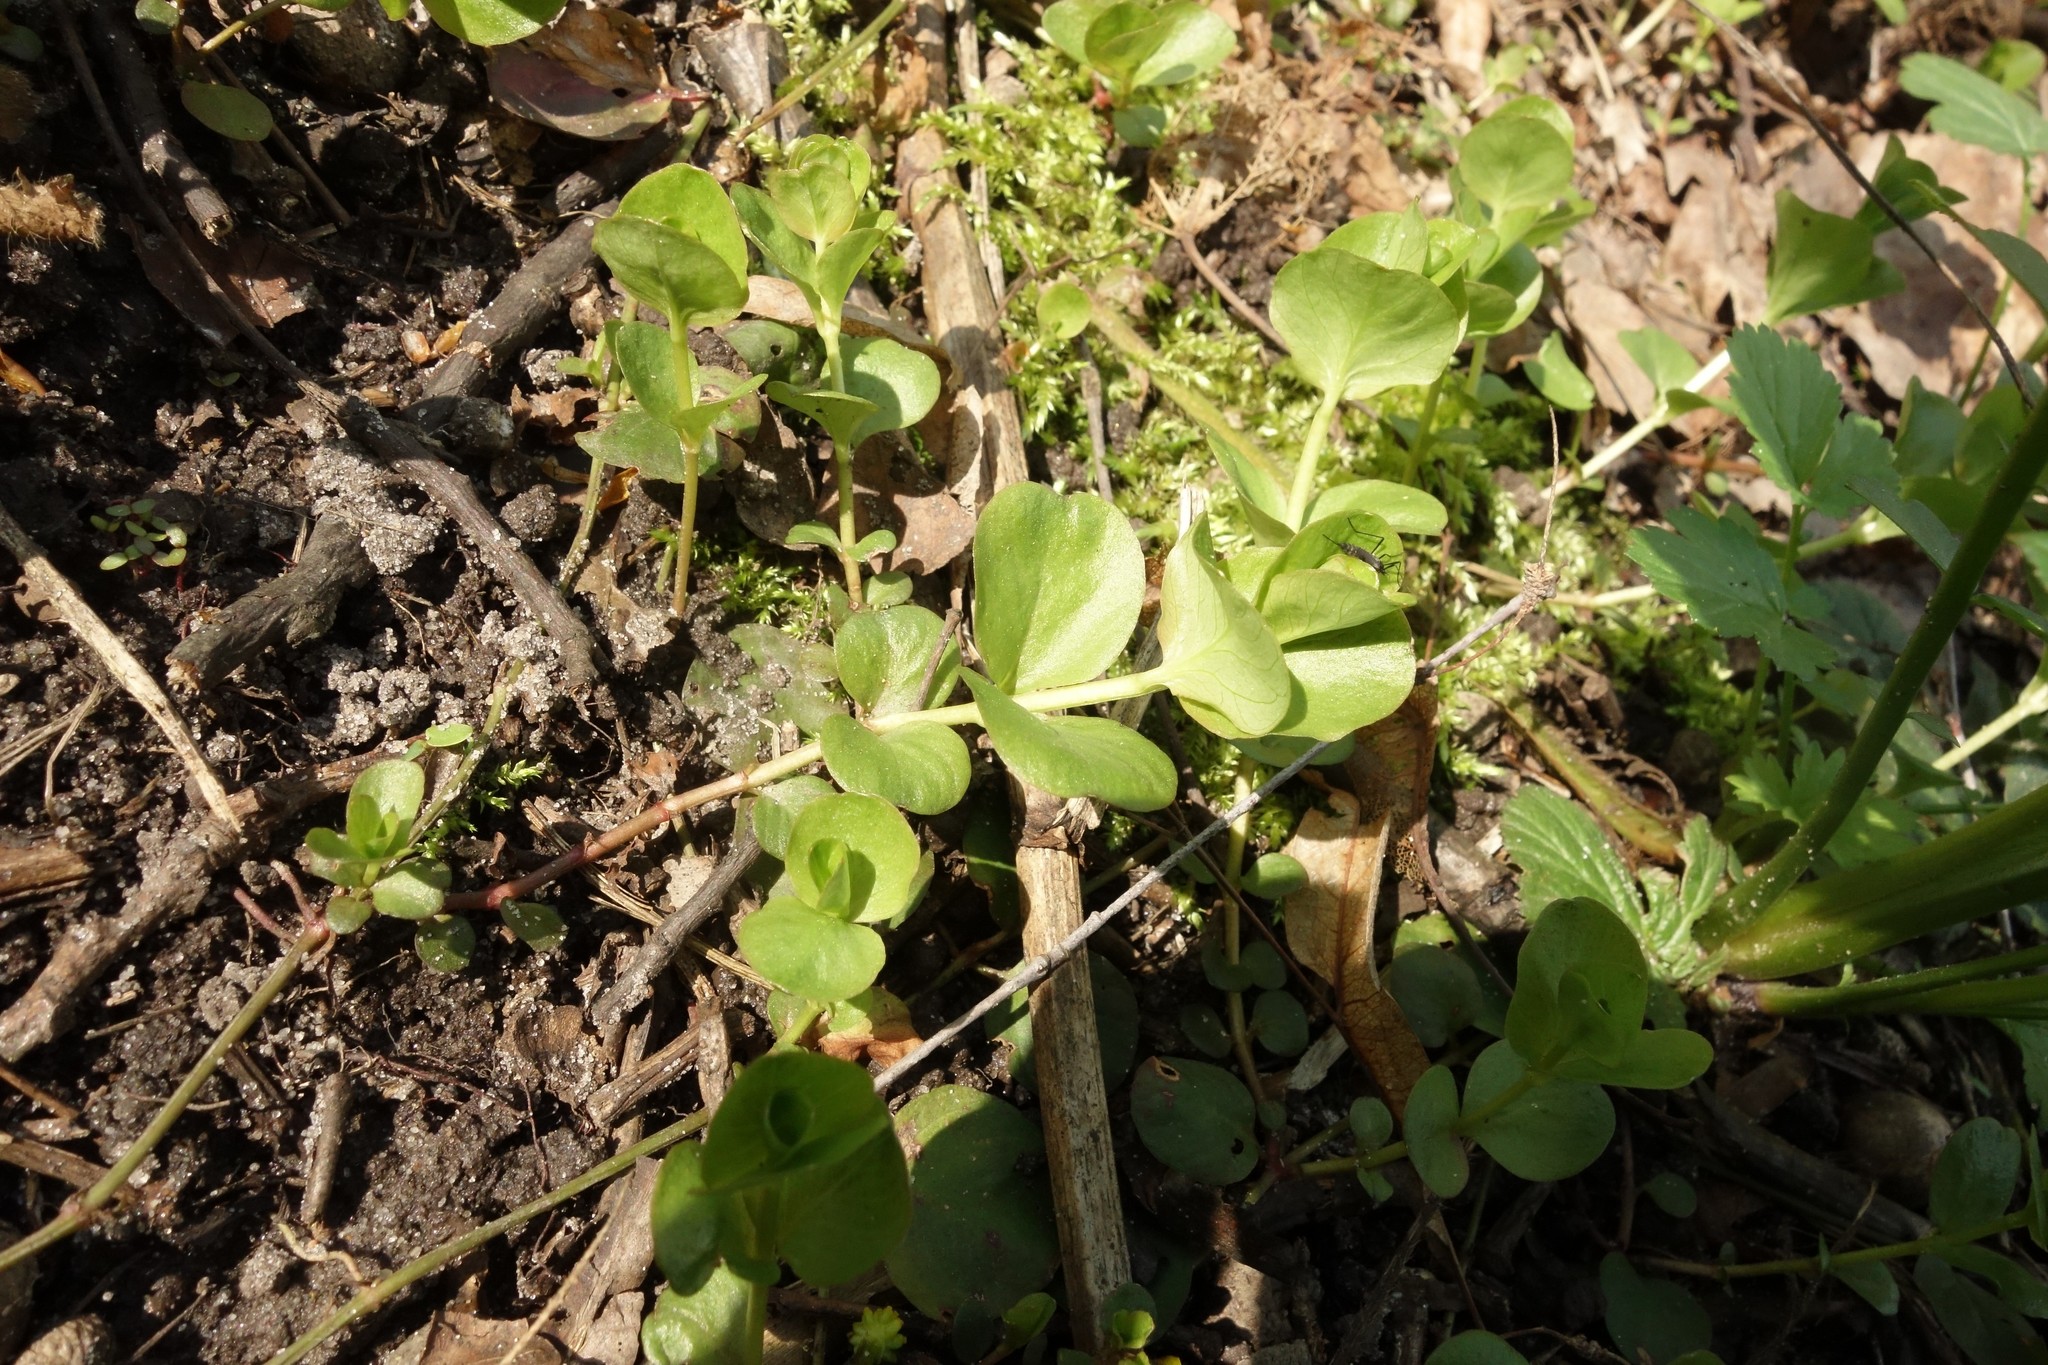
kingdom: Plantae
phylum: Tracheophyta
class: Magnoliopsida
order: Ericales
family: Primulaceae
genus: Lysimachia
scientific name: Lysimachia nummularia
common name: Moneywort
